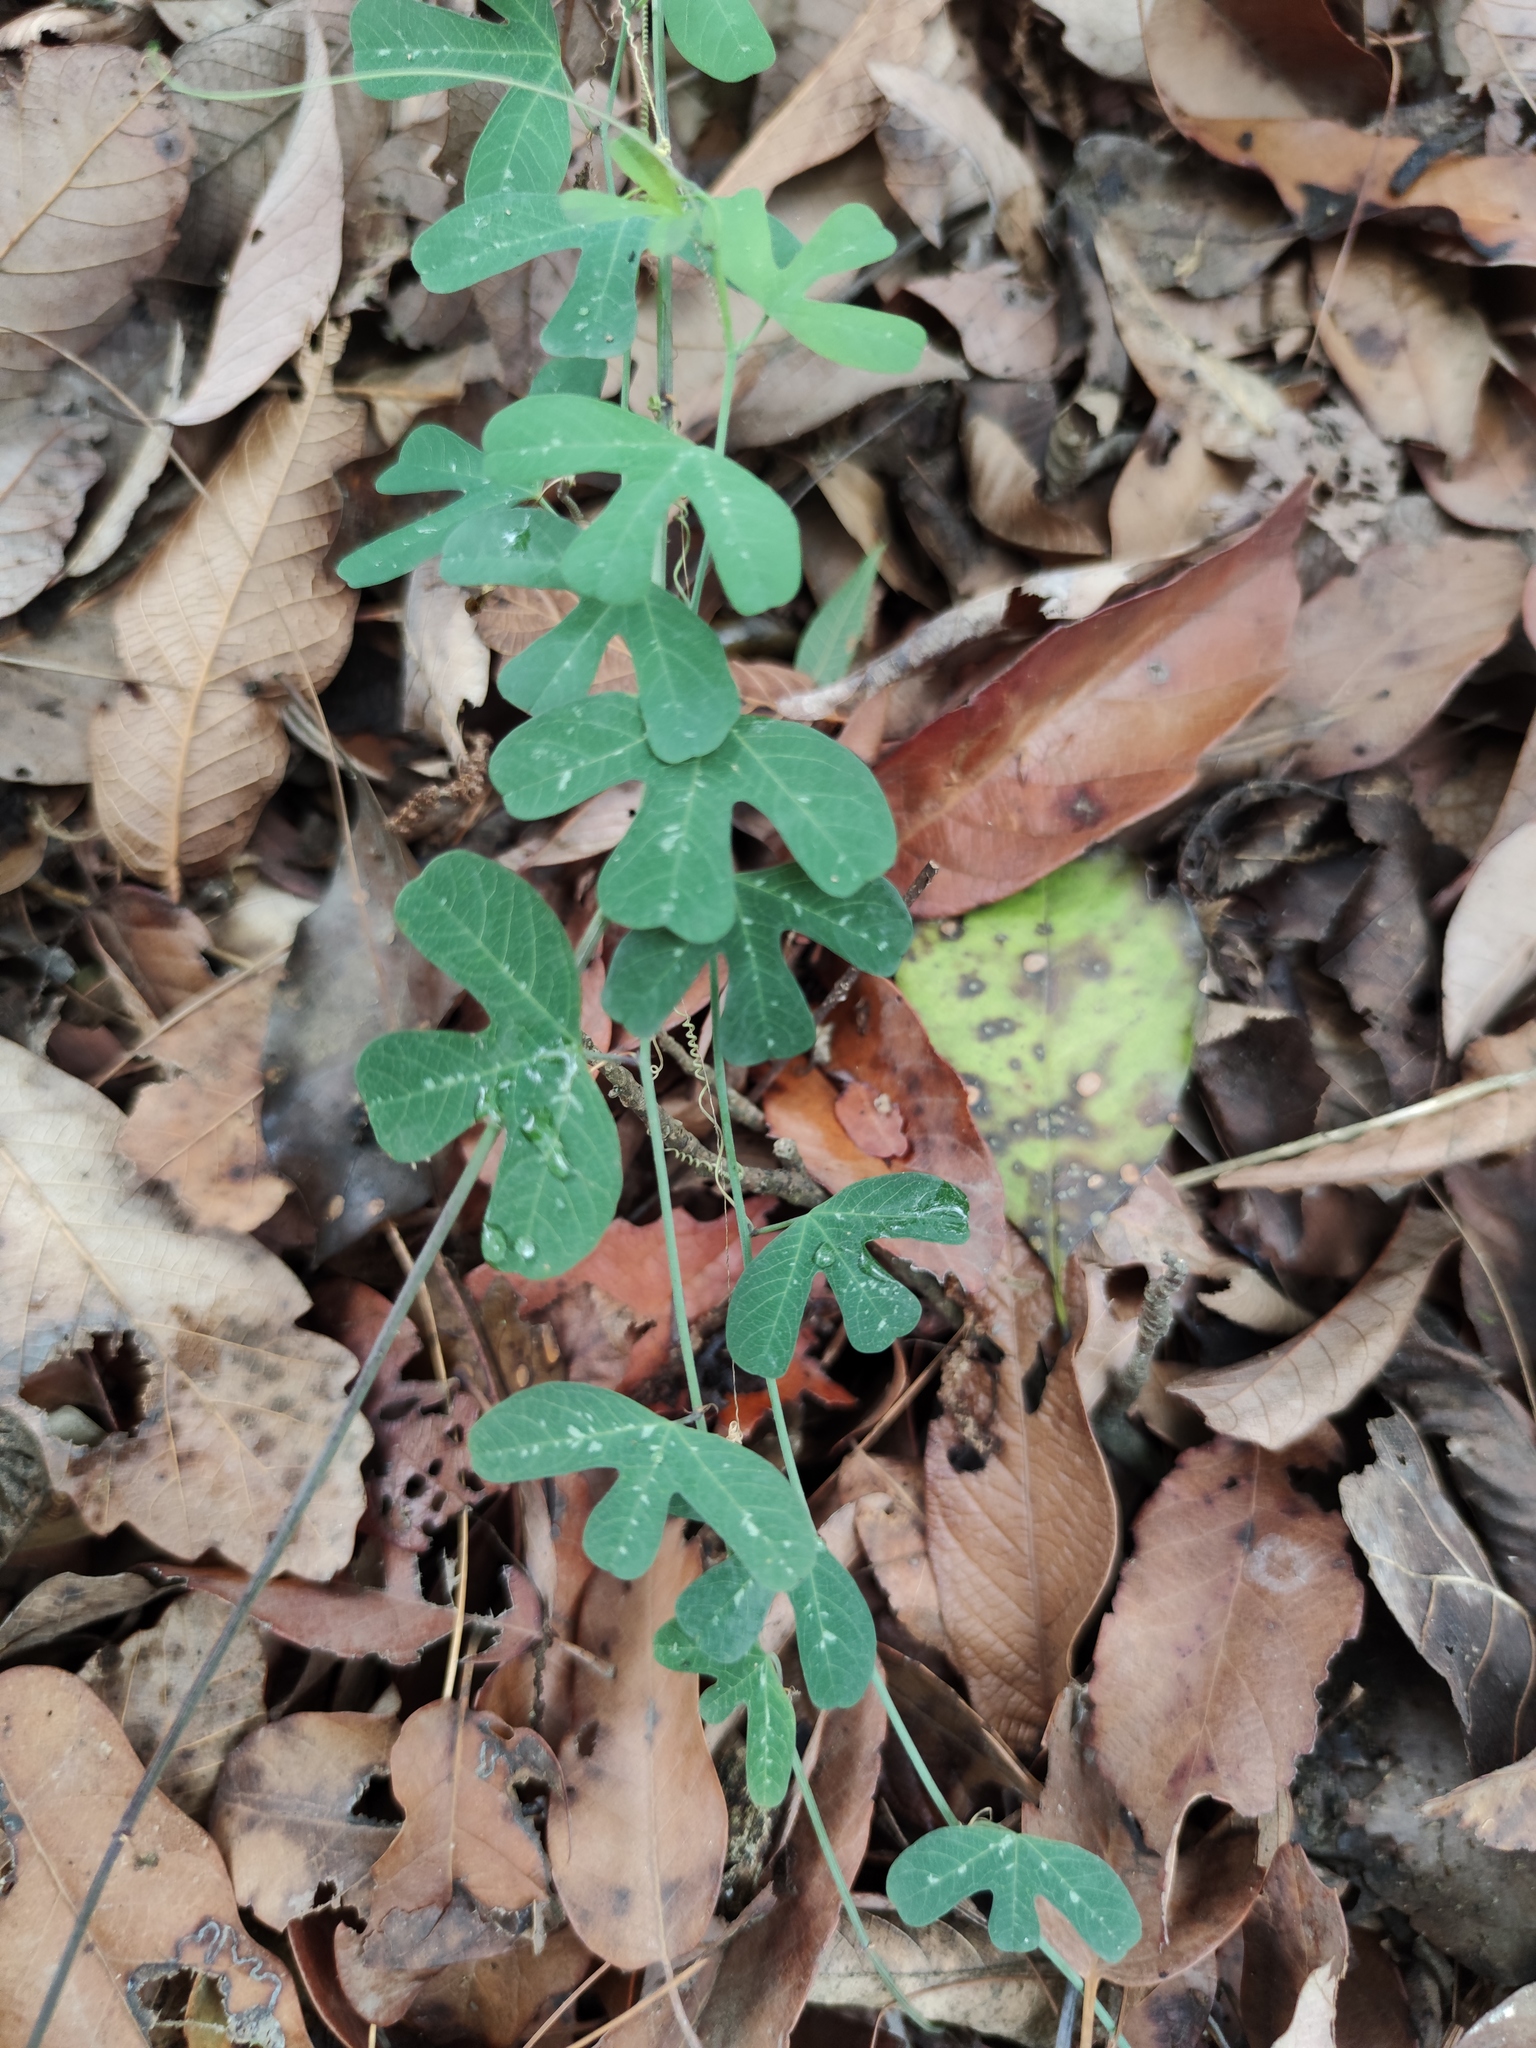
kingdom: Plantae
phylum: Tracheophyta
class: Magnoliopsida
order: Malpighiales
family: Passifloraceae
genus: Passiflora
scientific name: Passiflora affinis
